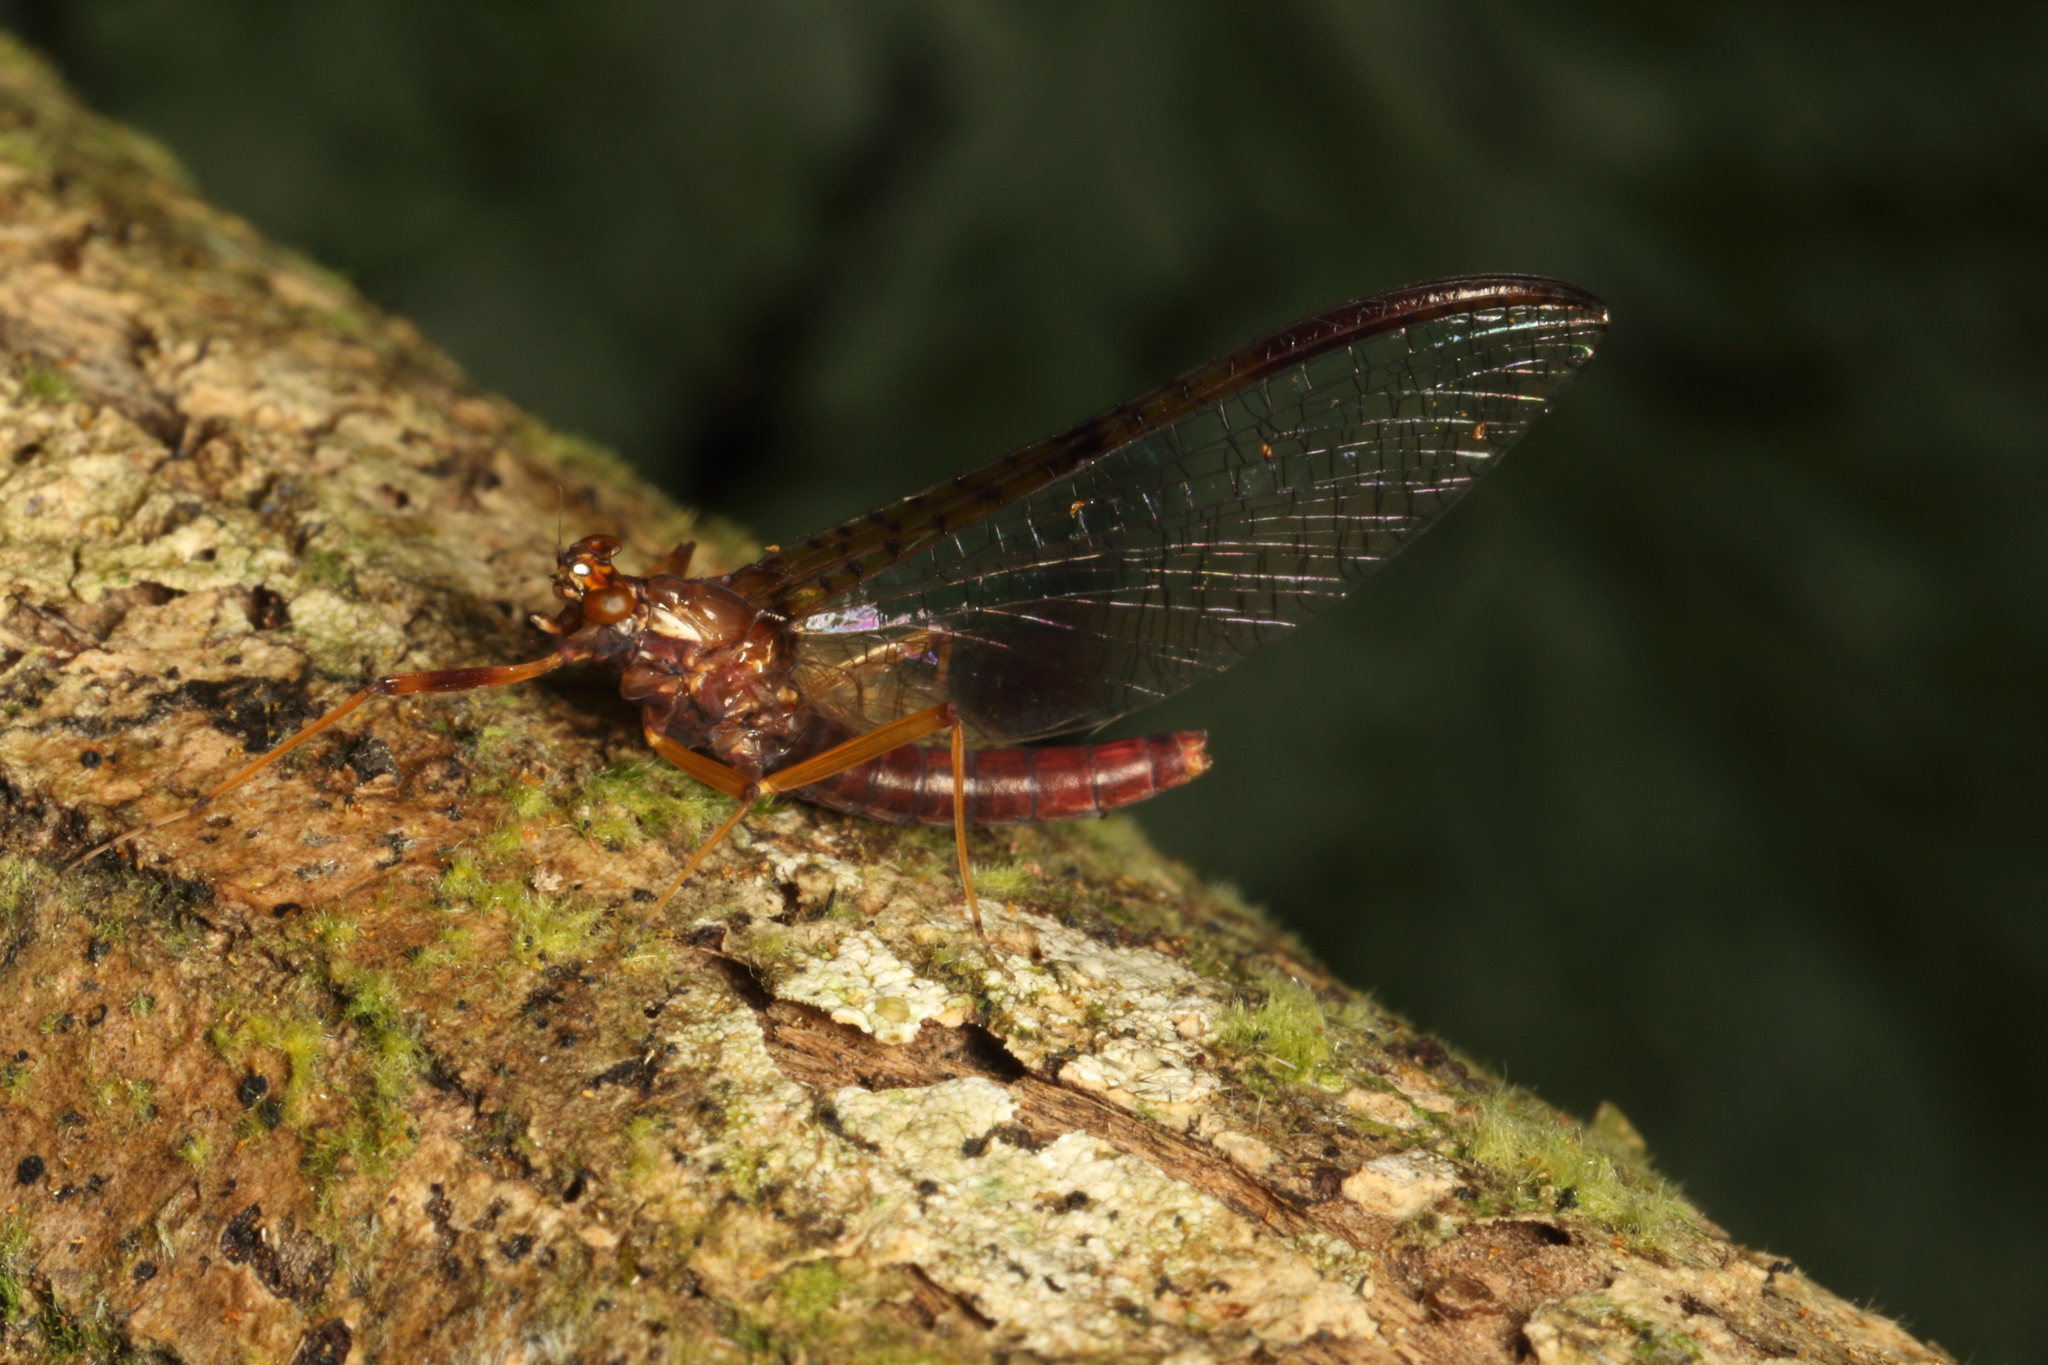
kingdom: Animalia
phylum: Arthropoda
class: Insecta
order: Ephemeroptera
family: Leptophlebiidae
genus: Zephlebia
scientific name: Zephlebia borealis
